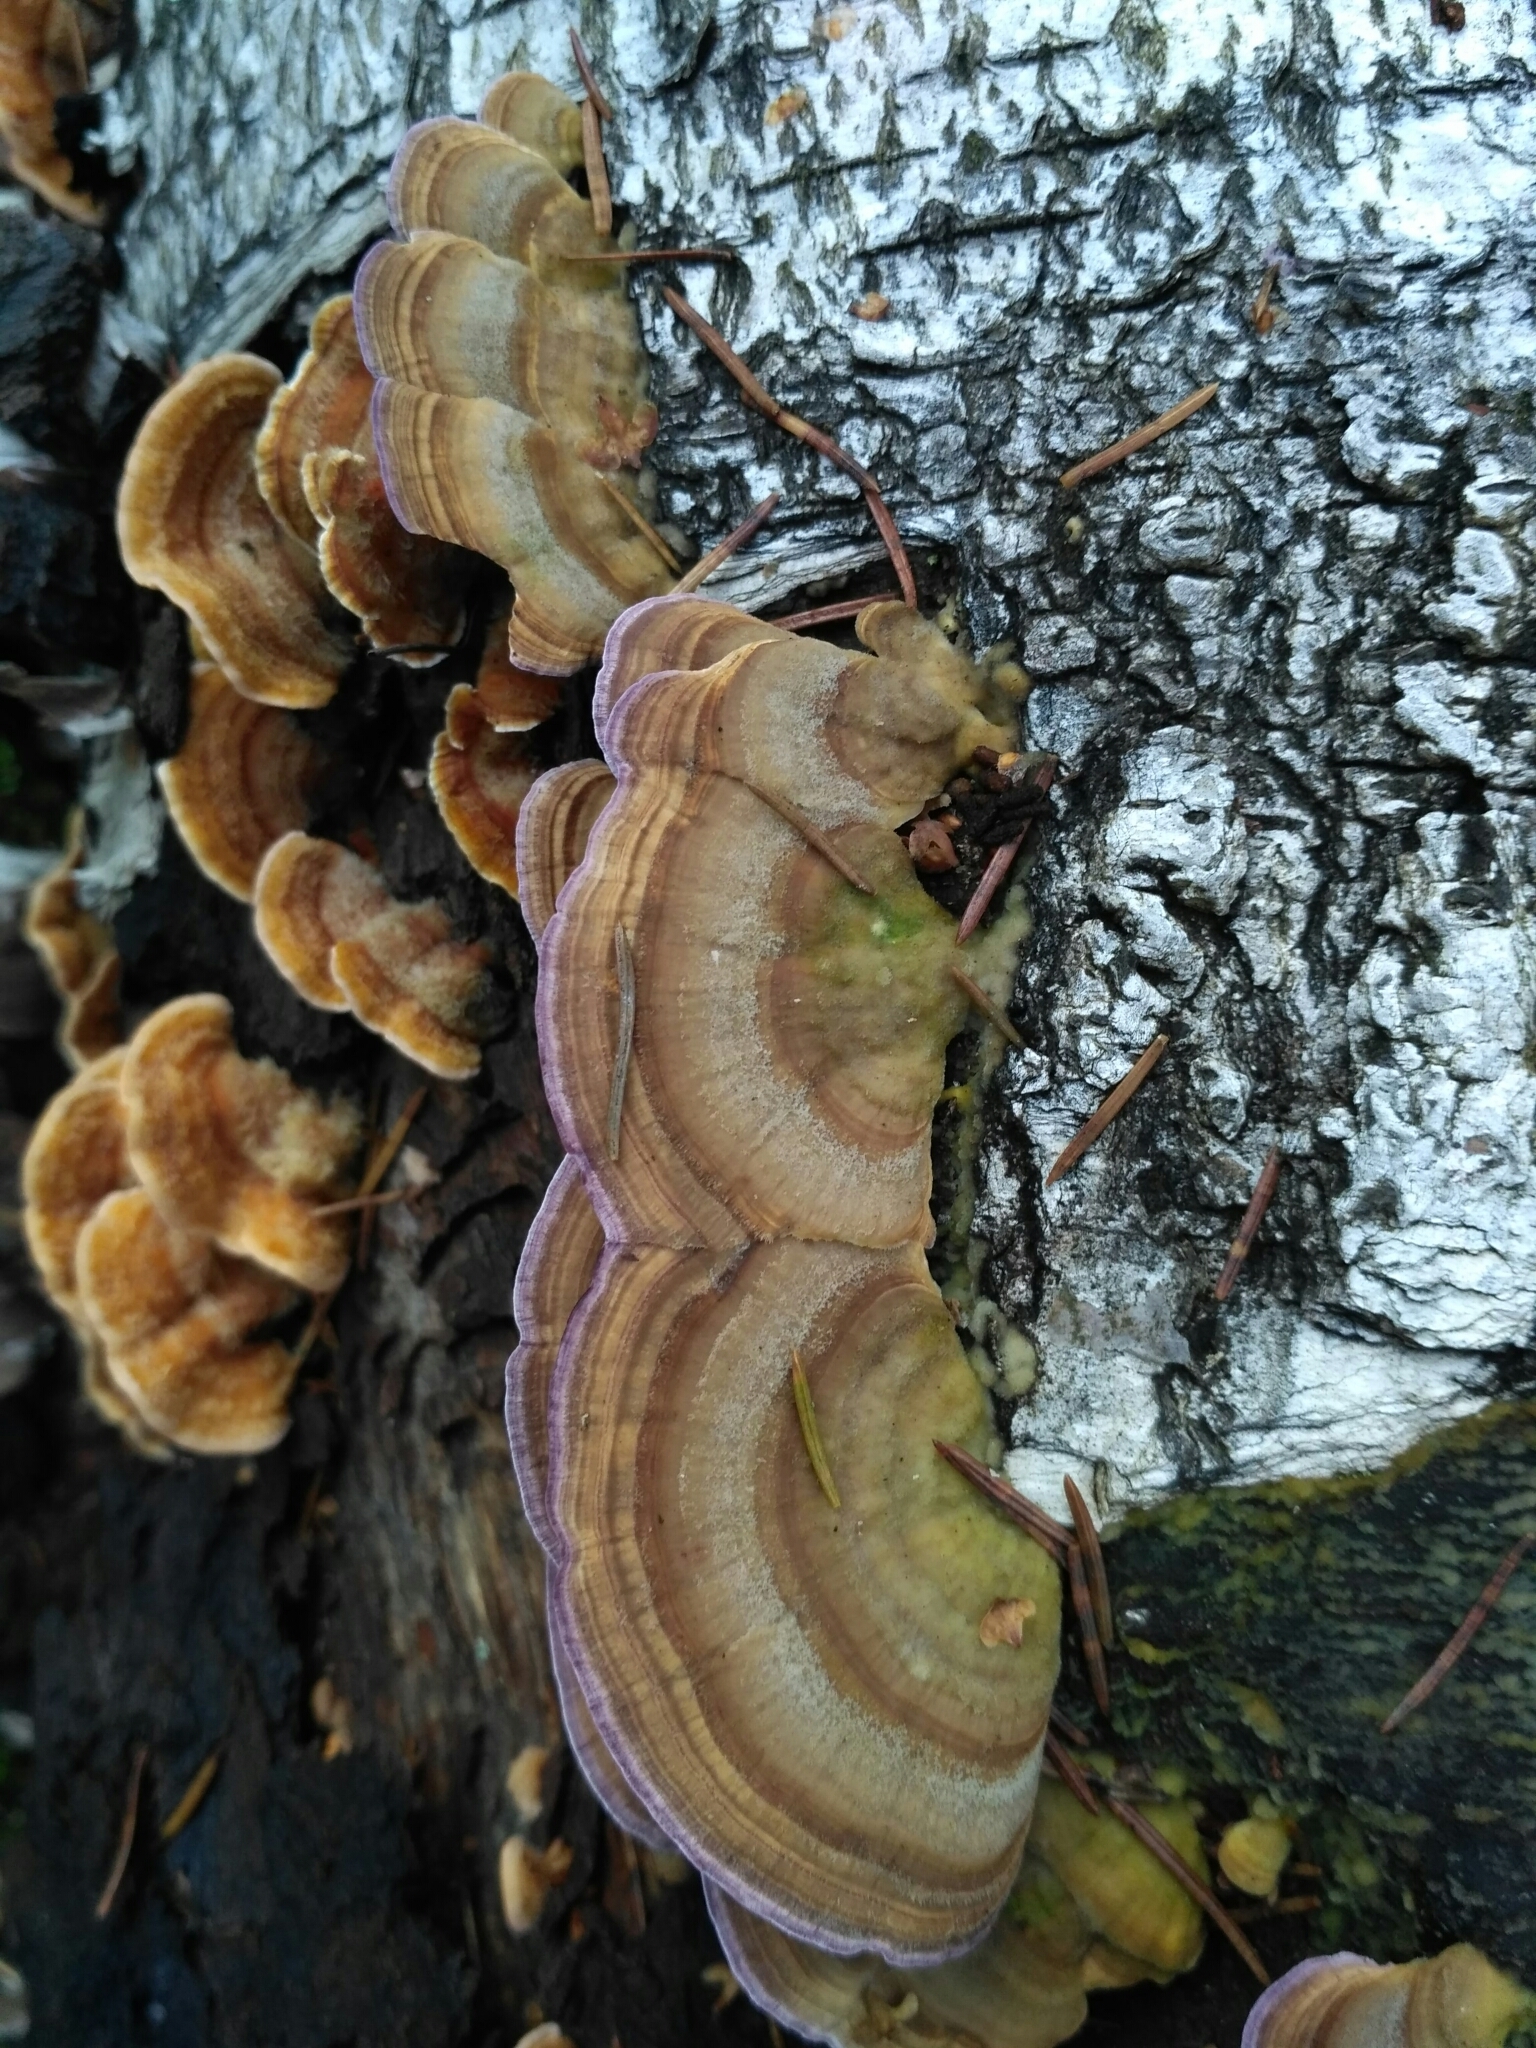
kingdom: Fungi
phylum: Basidiomycota
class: Agaricomycetes
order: Hymenochaetales
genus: Trichaptum
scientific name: Trichaptum biforme
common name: Violet-toothed polypore
